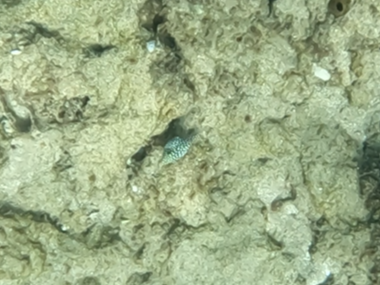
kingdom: Animalia
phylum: Chordata
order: Tetraodontiformes
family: Tetraodontidae
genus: Canthigaster
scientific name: Canthigaster jactator
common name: Hawaiian whitespotted toby
